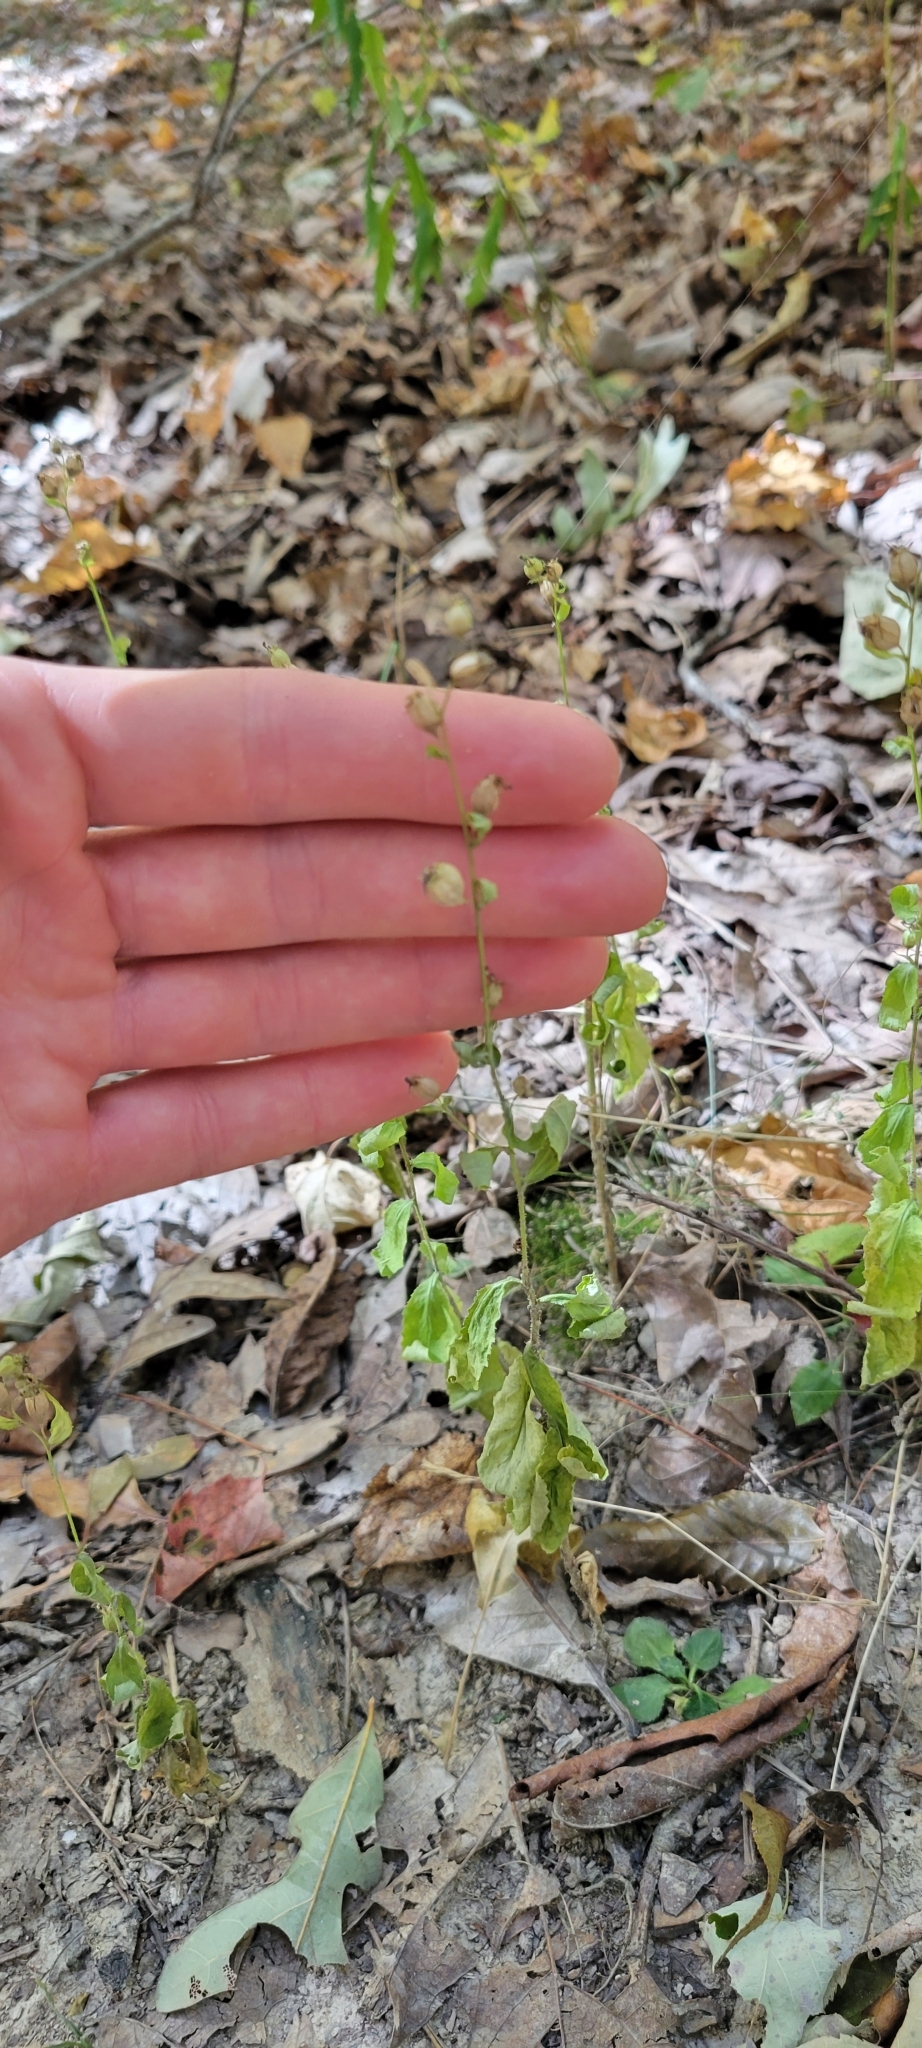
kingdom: Plantae
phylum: Tracheophyta
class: Magnoliopsida
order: Asterales
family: Campanulaceae
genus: Lobelia
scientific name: Lobelia inflata
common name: Indian tobacco
